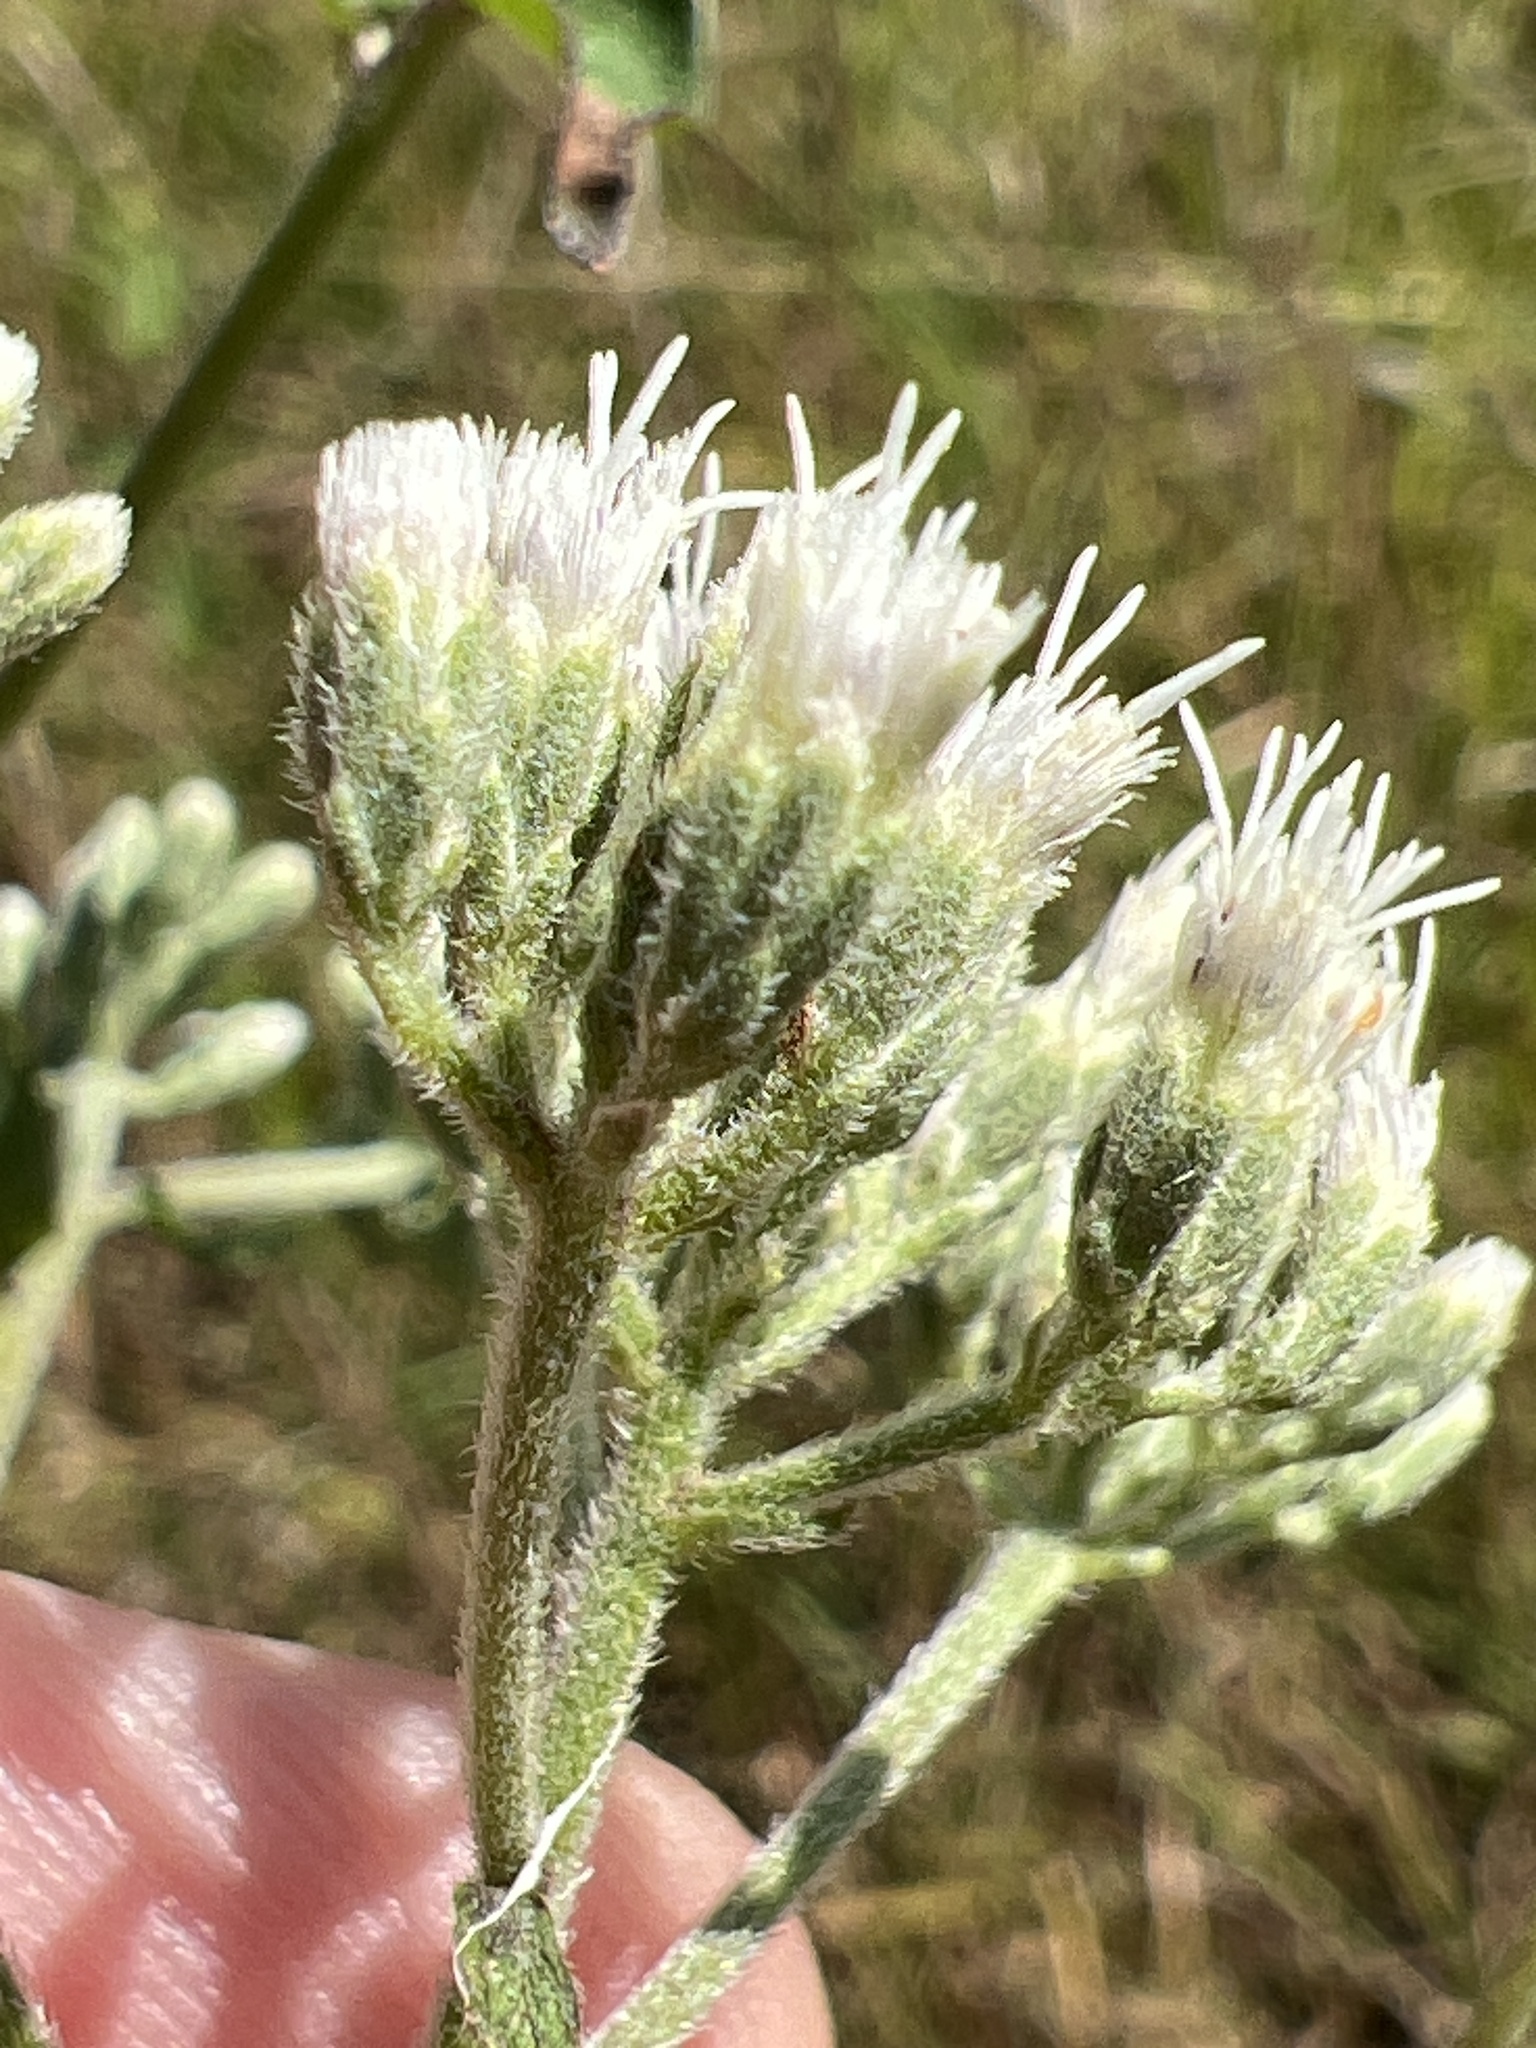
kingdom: Plantae
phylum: Tracheophyta
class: Magnoliopsida
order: Asterales
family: Asteraceae
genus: Eupatorium
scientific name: Eupatorium pilosum
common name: Rough boneset
